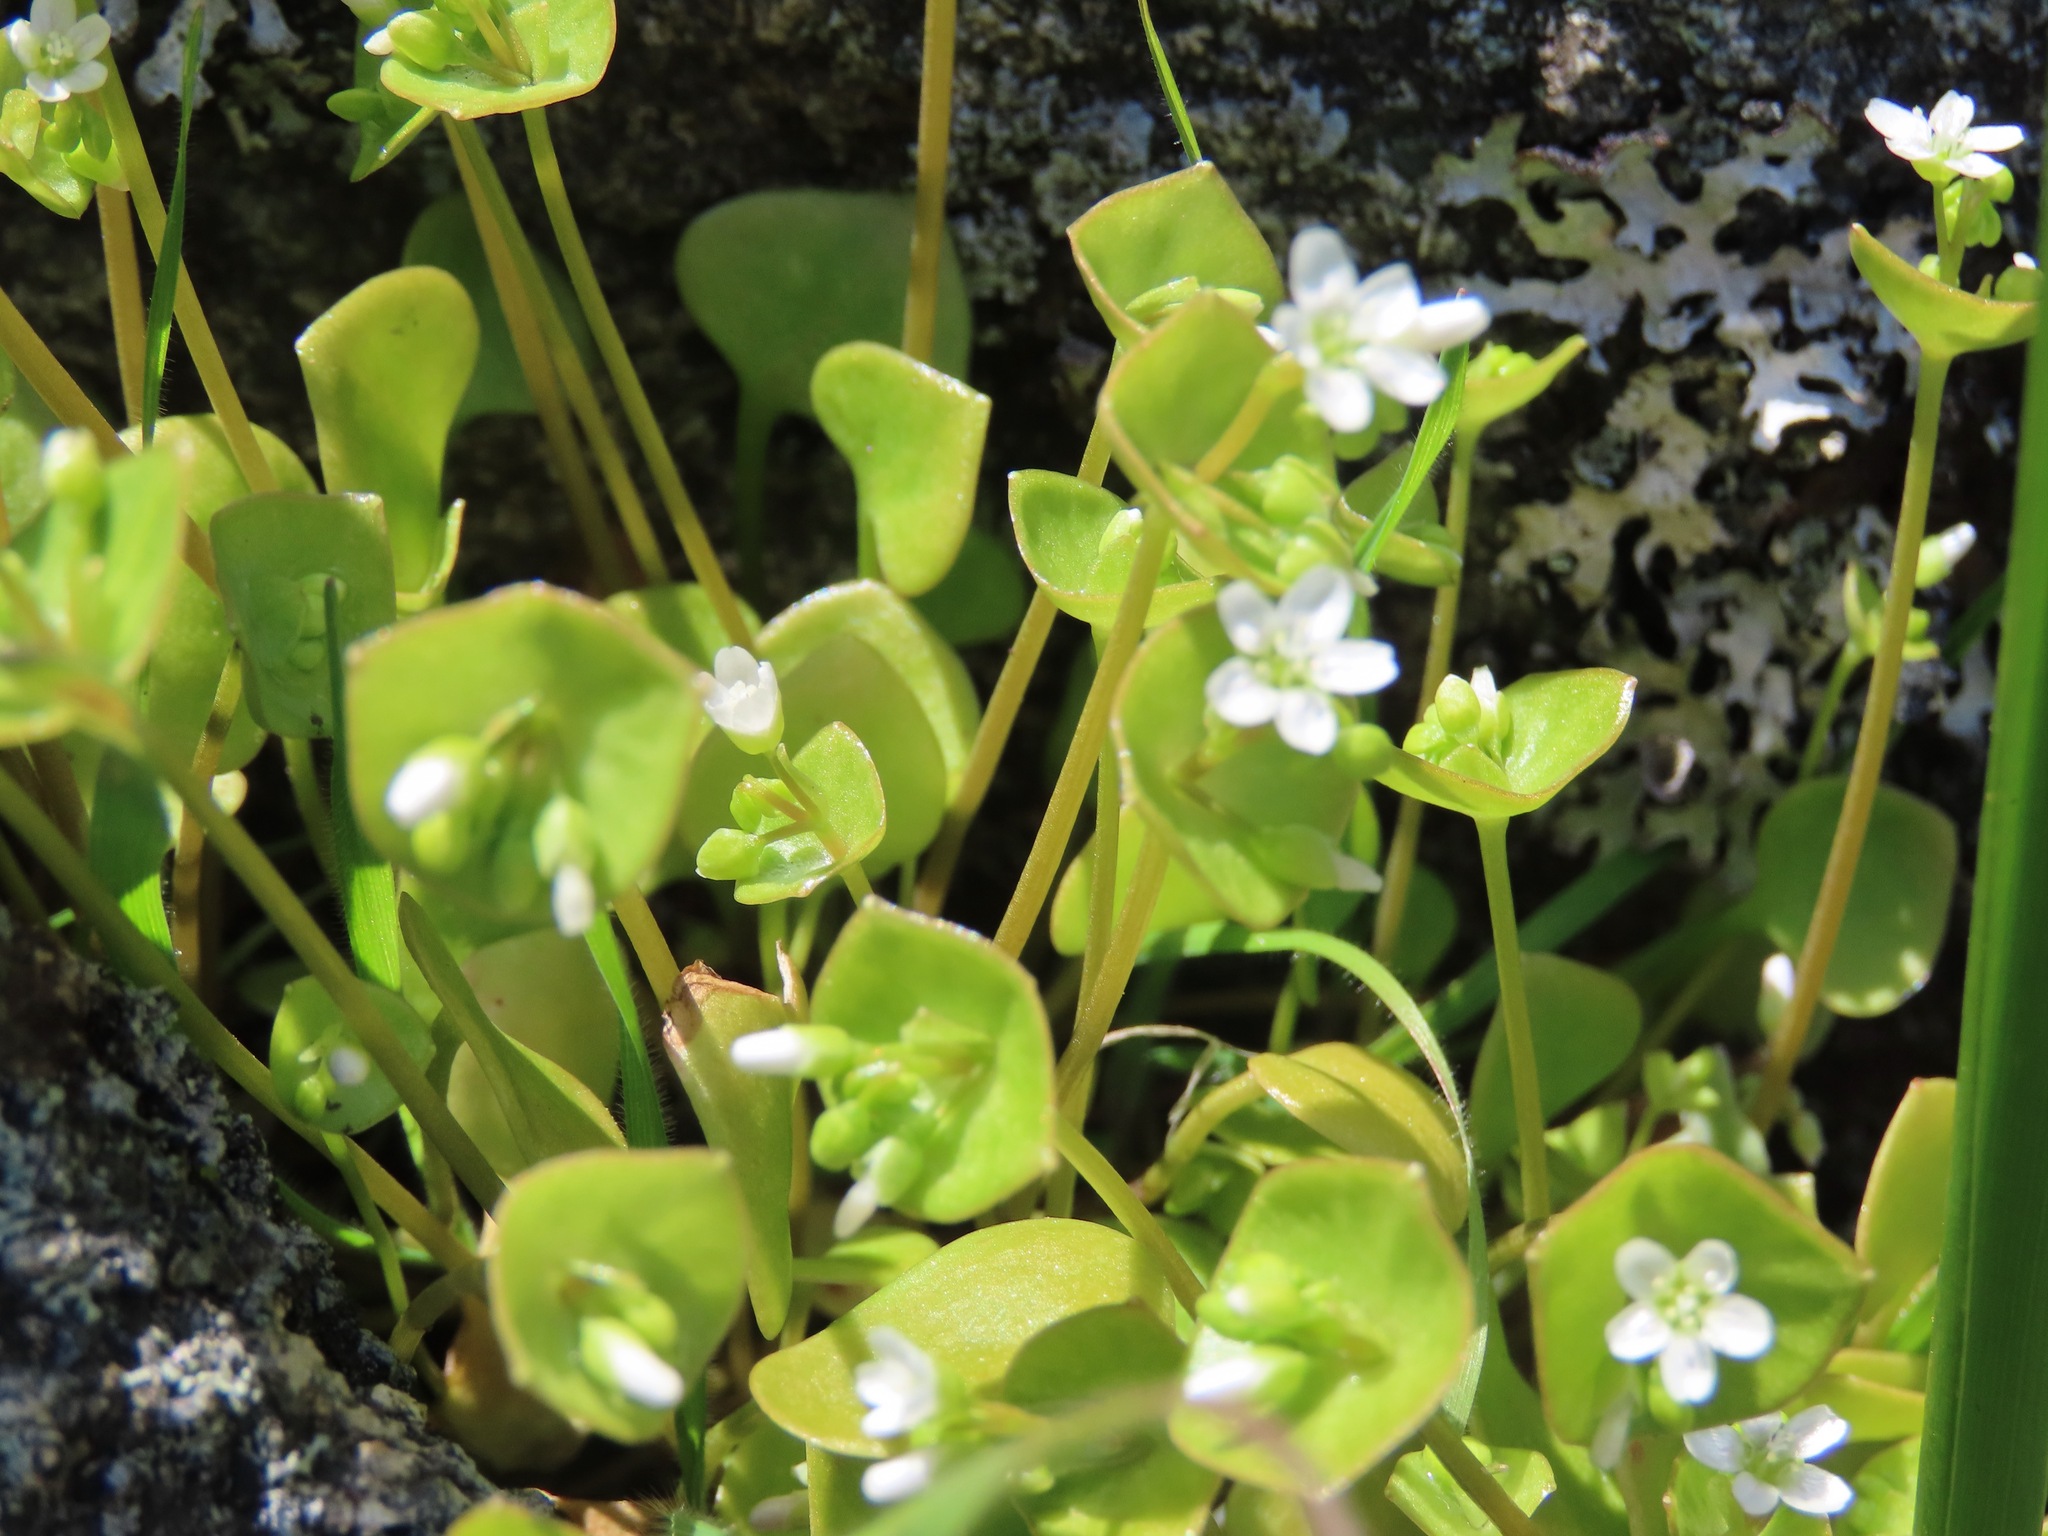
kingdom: Plantae
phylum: Tracheophyta
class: Magnoliopsida
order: Caryophyllales
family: Montiaceae
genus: Claytonia
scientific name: Claytonia perfoliata
